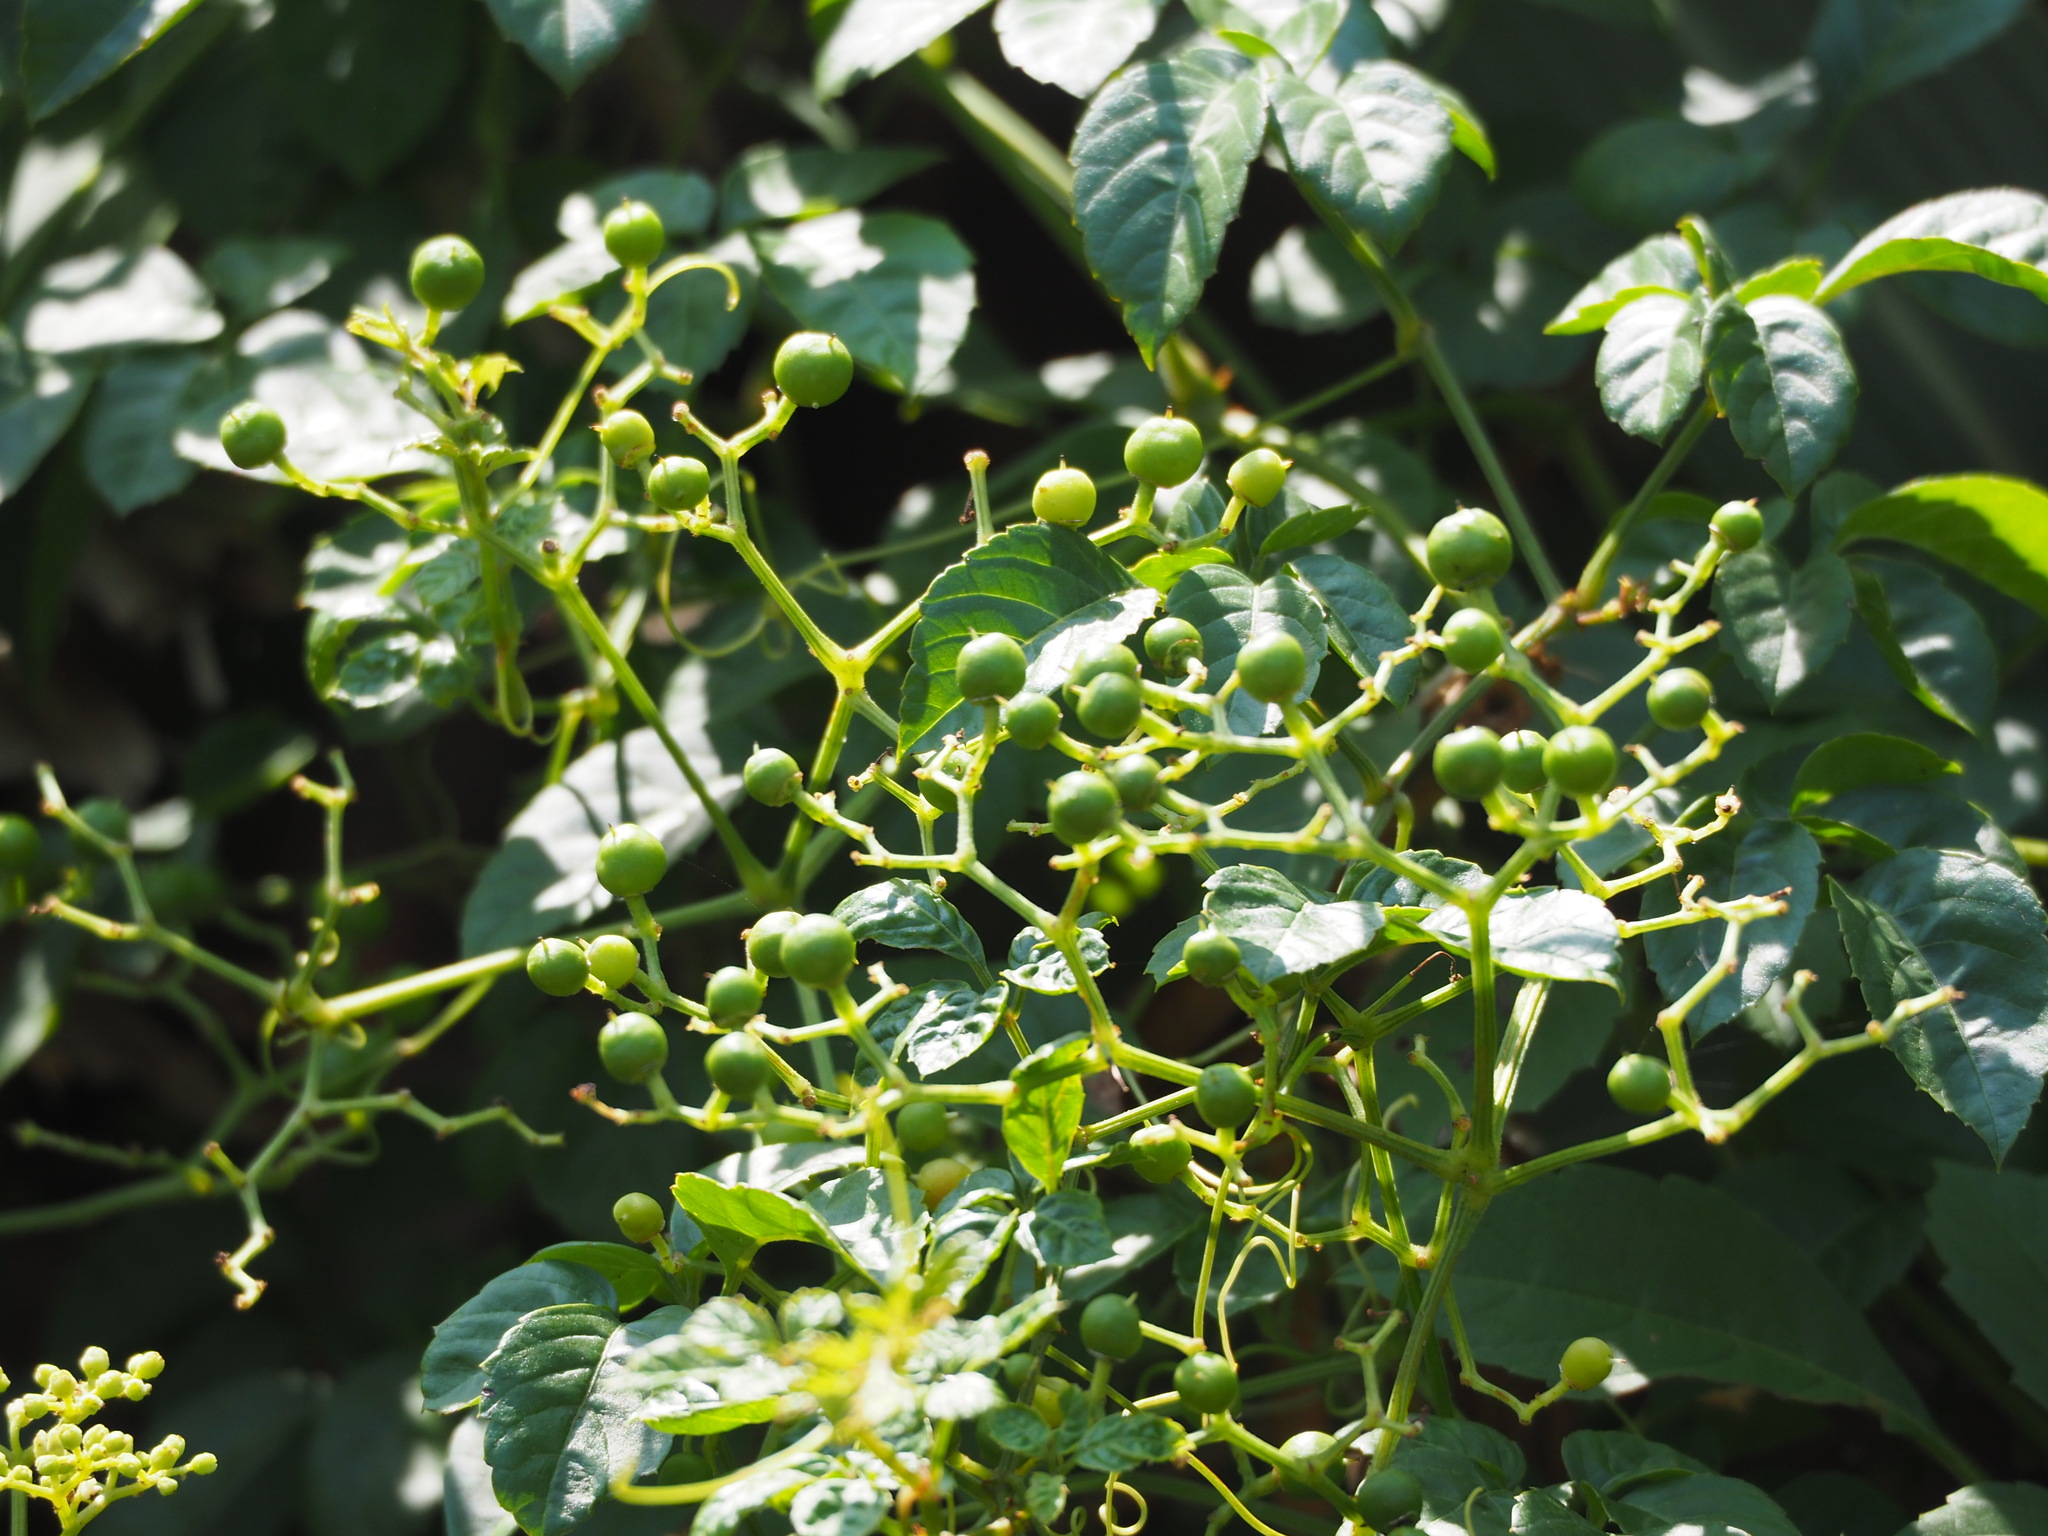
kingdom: Plantae
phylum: Tracheophyta
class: Magnoliopsida
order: Vitales
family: Vitaceae
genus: Causonis
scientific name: Causonis japonica
